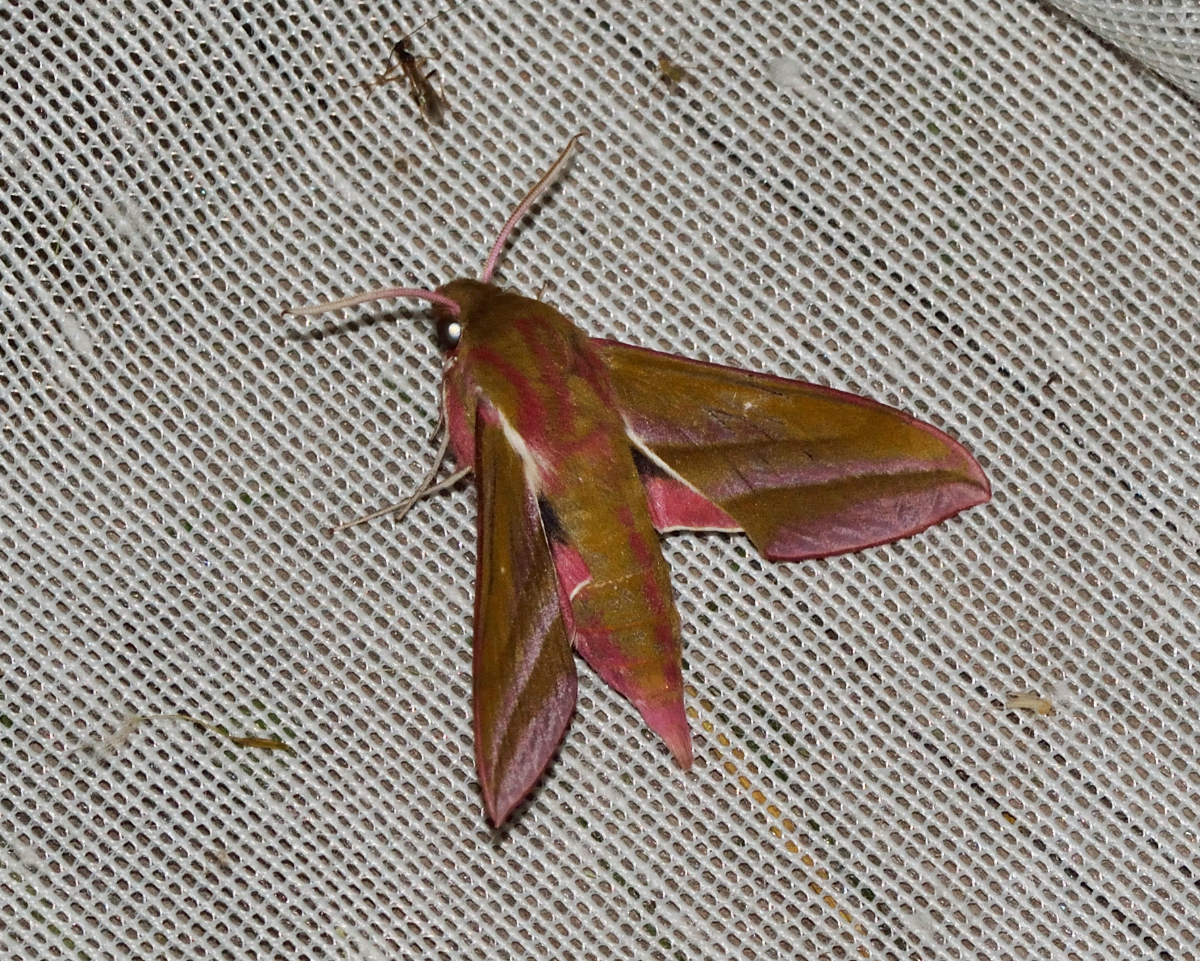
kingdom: Animalia
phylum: Arthropoda
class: Insecta
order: Lepidoptera
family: Sphingidae
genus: Deilephila
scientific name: Deilephila elpenor
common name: Elephant hawk-moth
